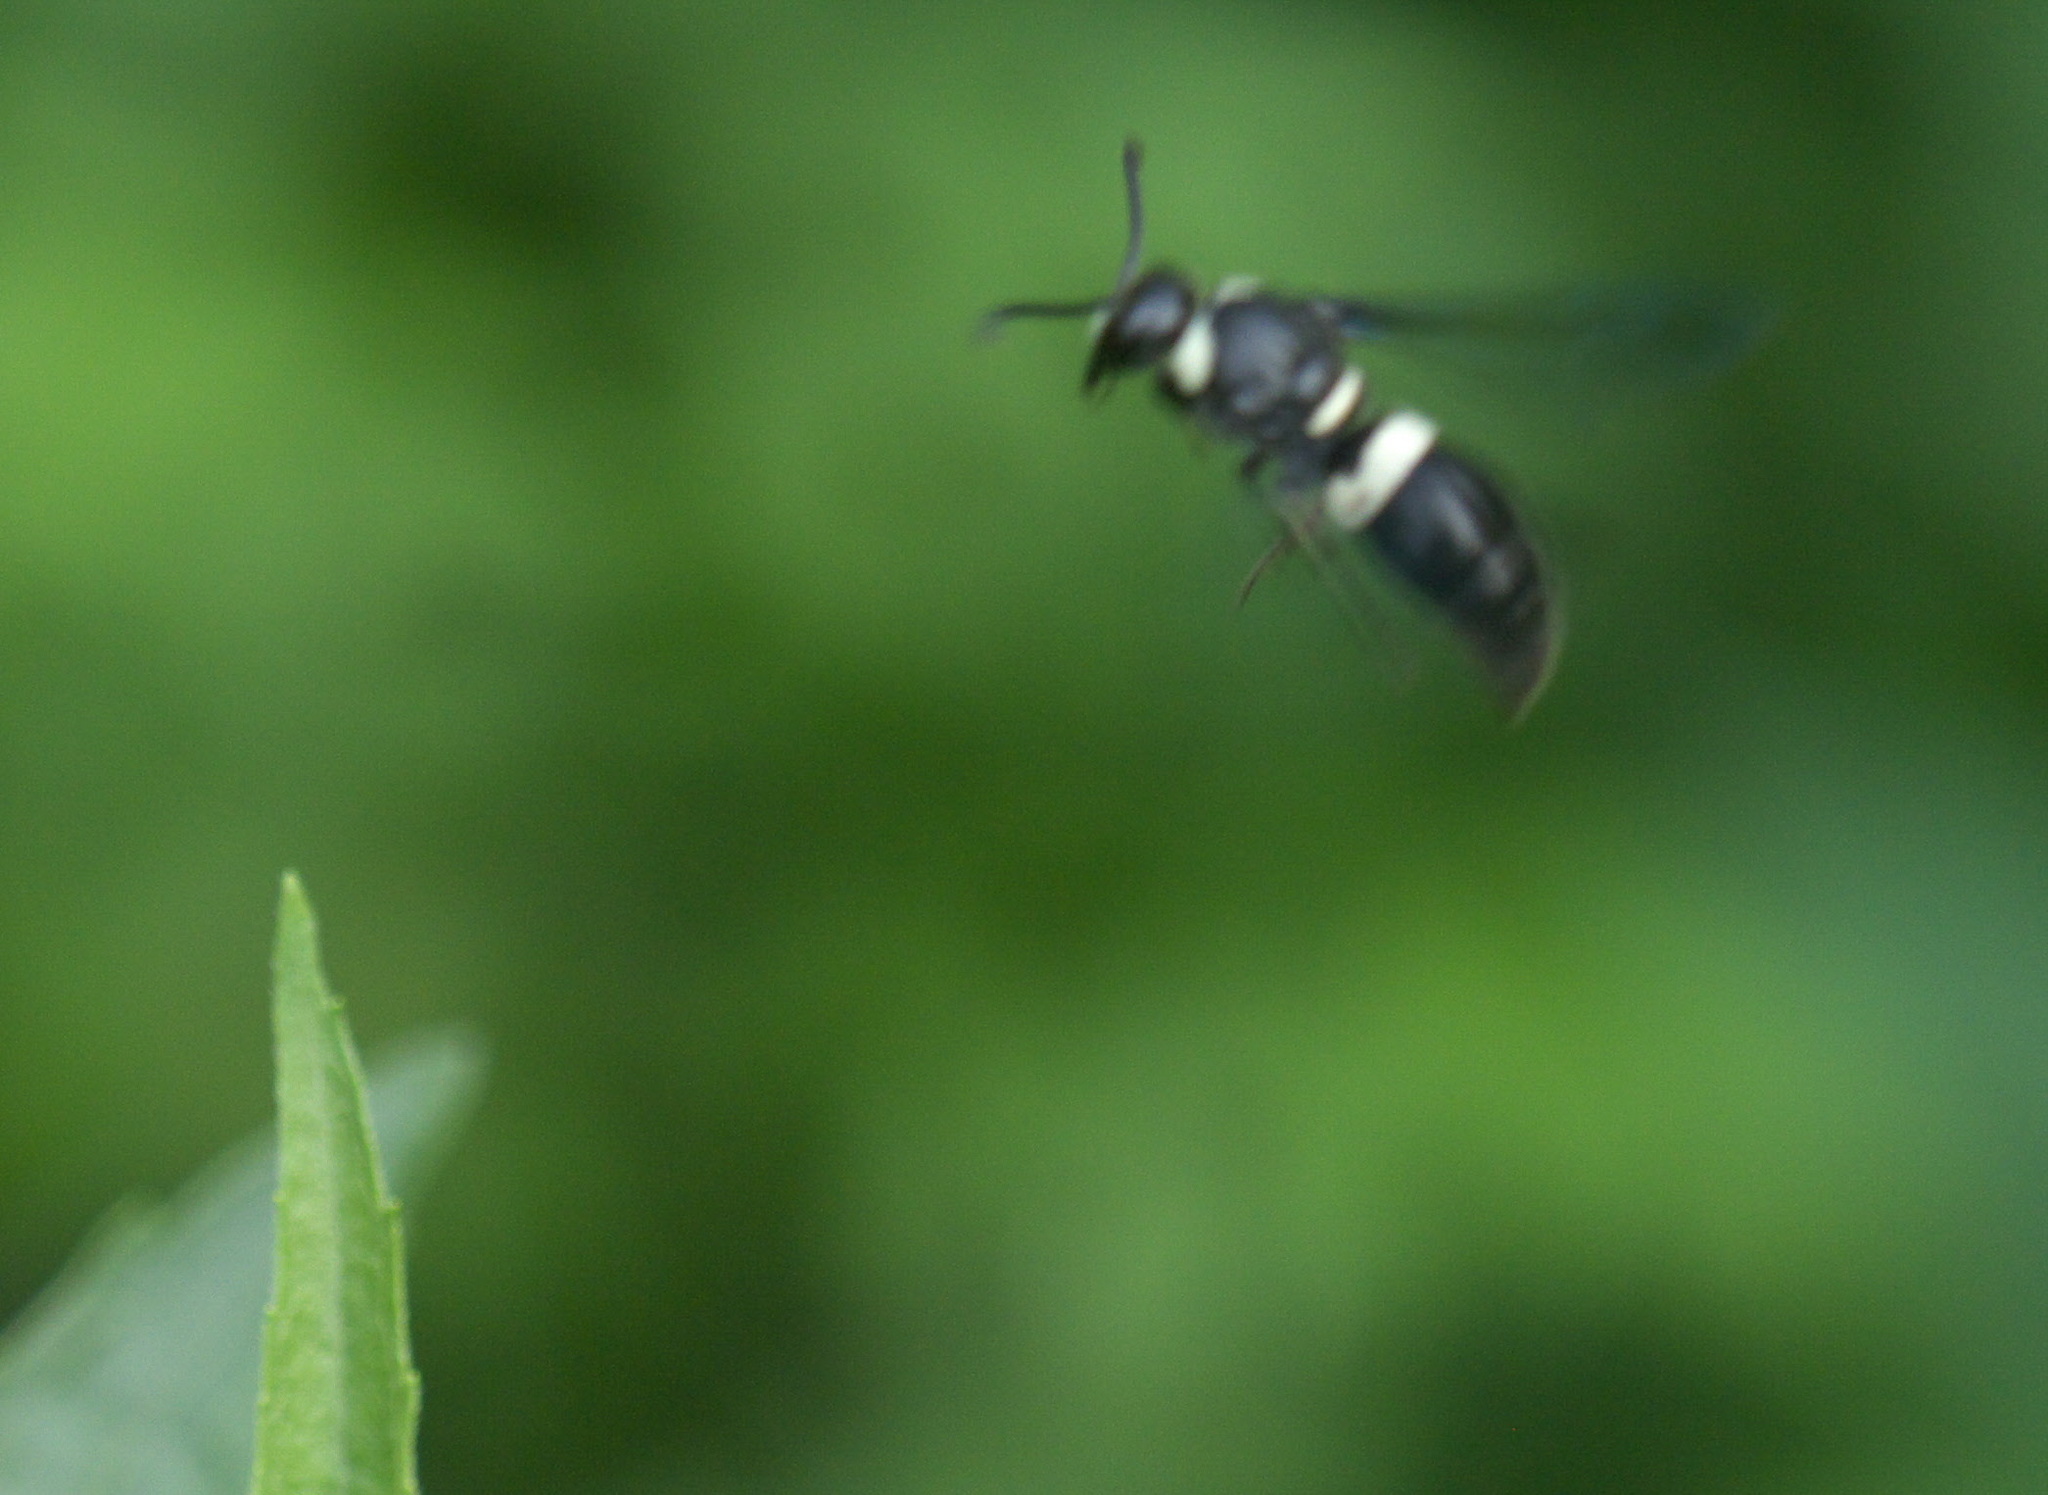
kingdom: Animalia
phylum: Arthropoda
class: Insecta
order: Hymenoptera
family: Eumenidae
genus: Monobia
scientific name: Monobia quadridens
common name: Four-toothed mason wasp
